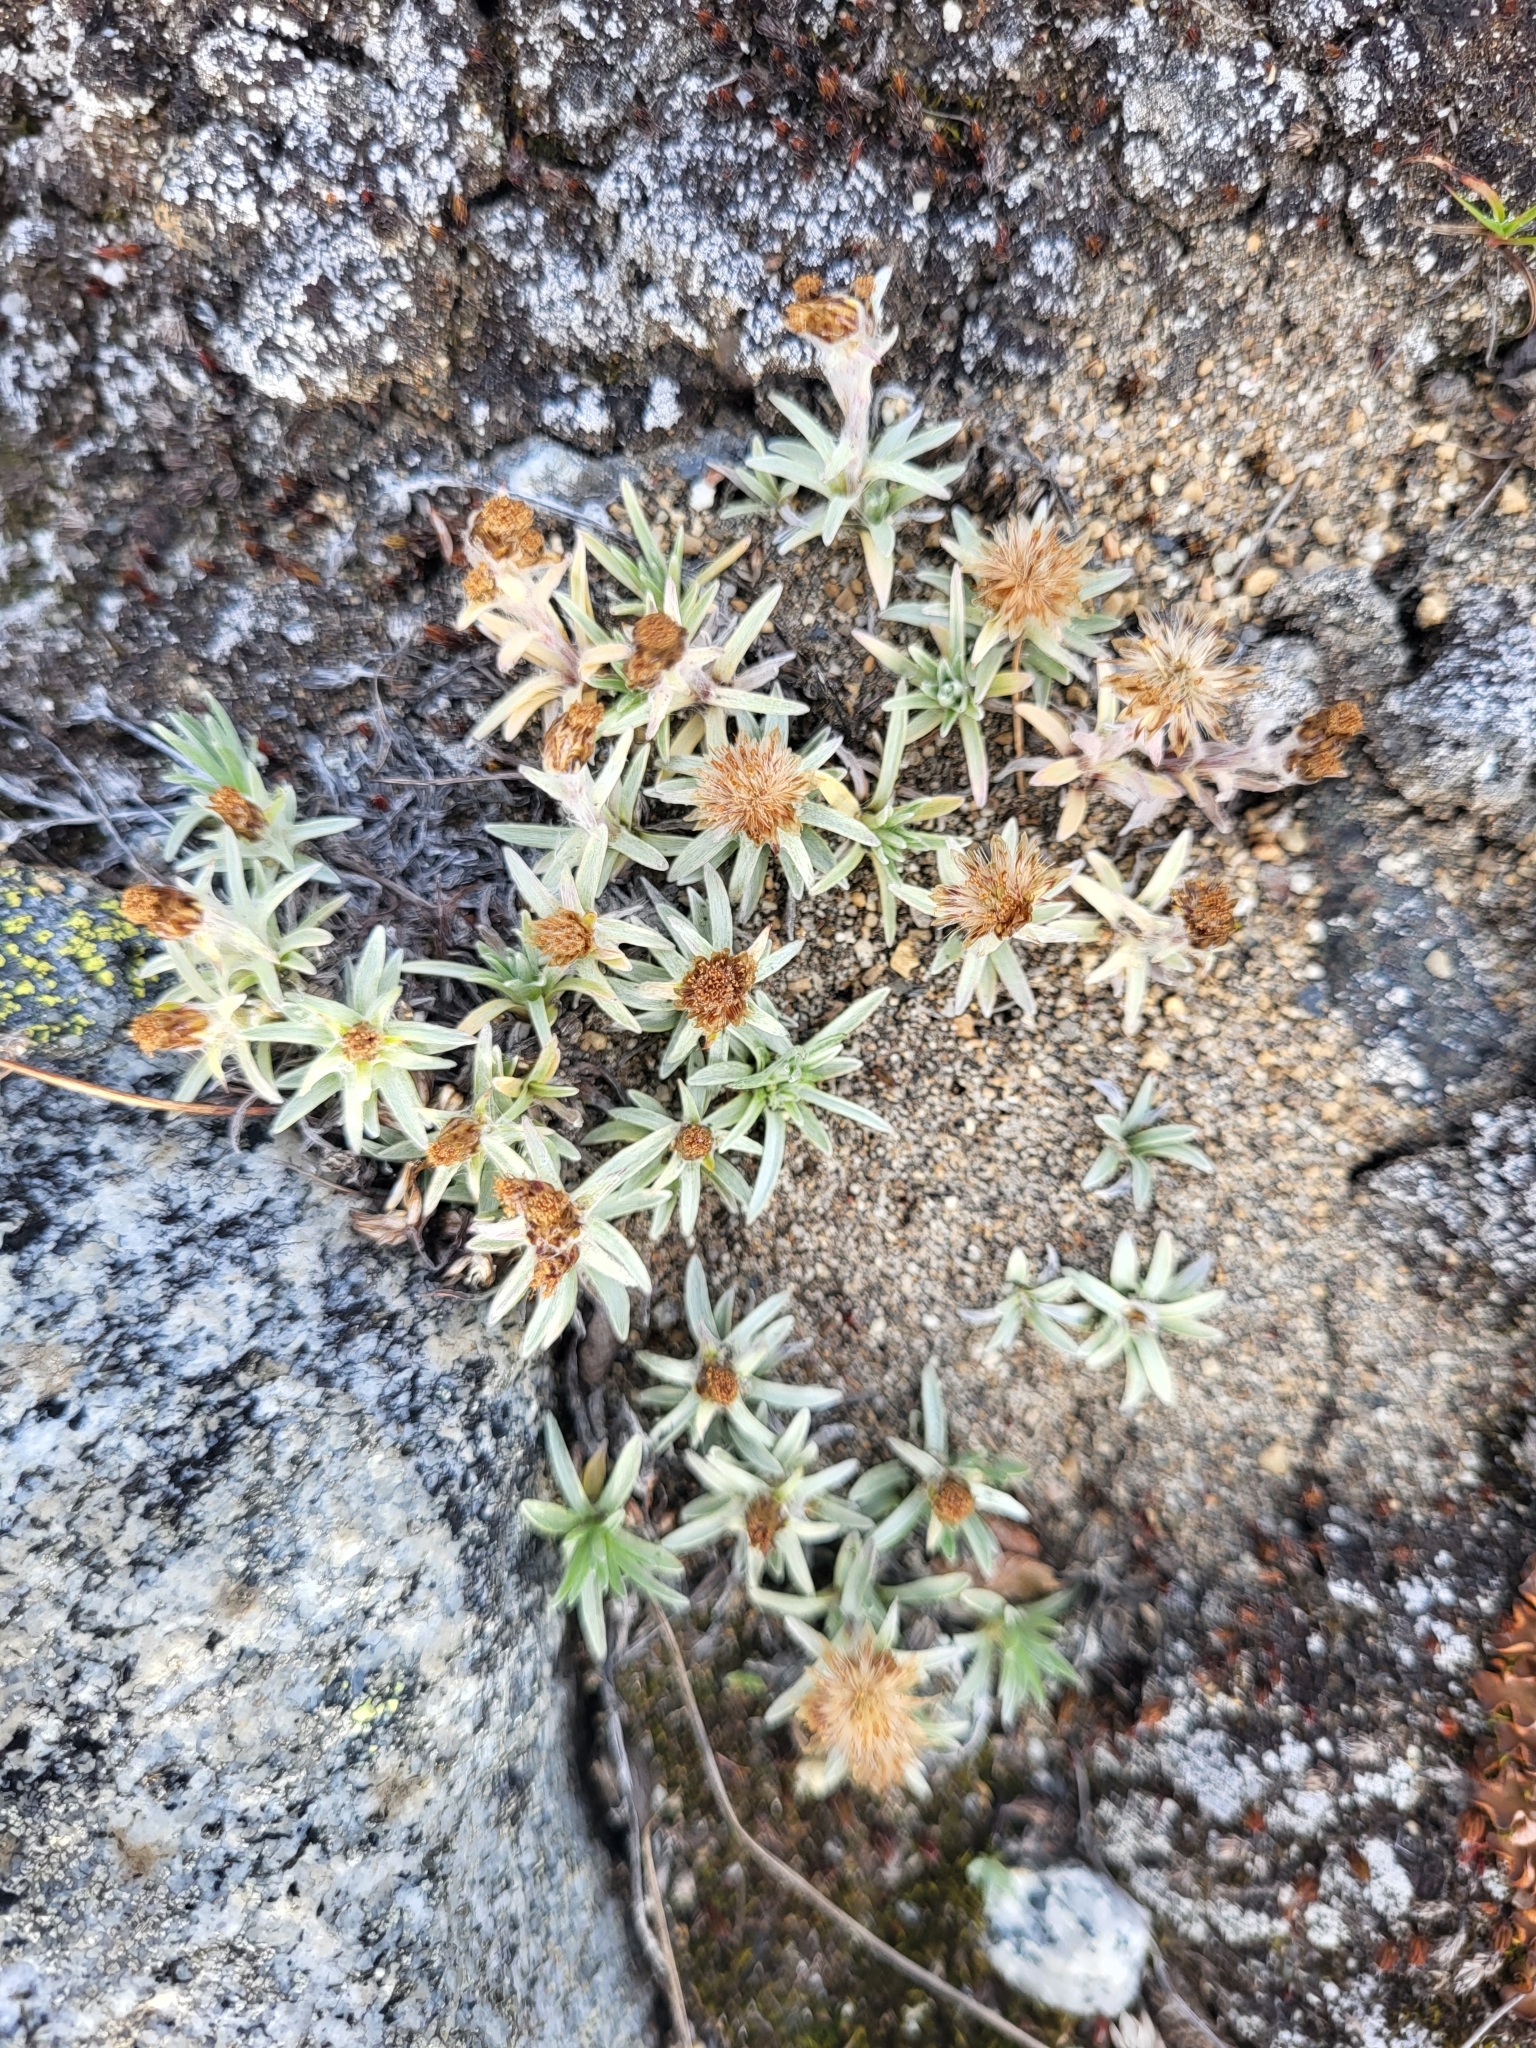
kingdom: Plantae
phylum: Tracheophyta
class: Magnoliopsida
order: Asterales
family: Asteraceae
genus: Omalotheca
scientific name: Omalotheca supina
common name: Alpine arctic-cudweed
